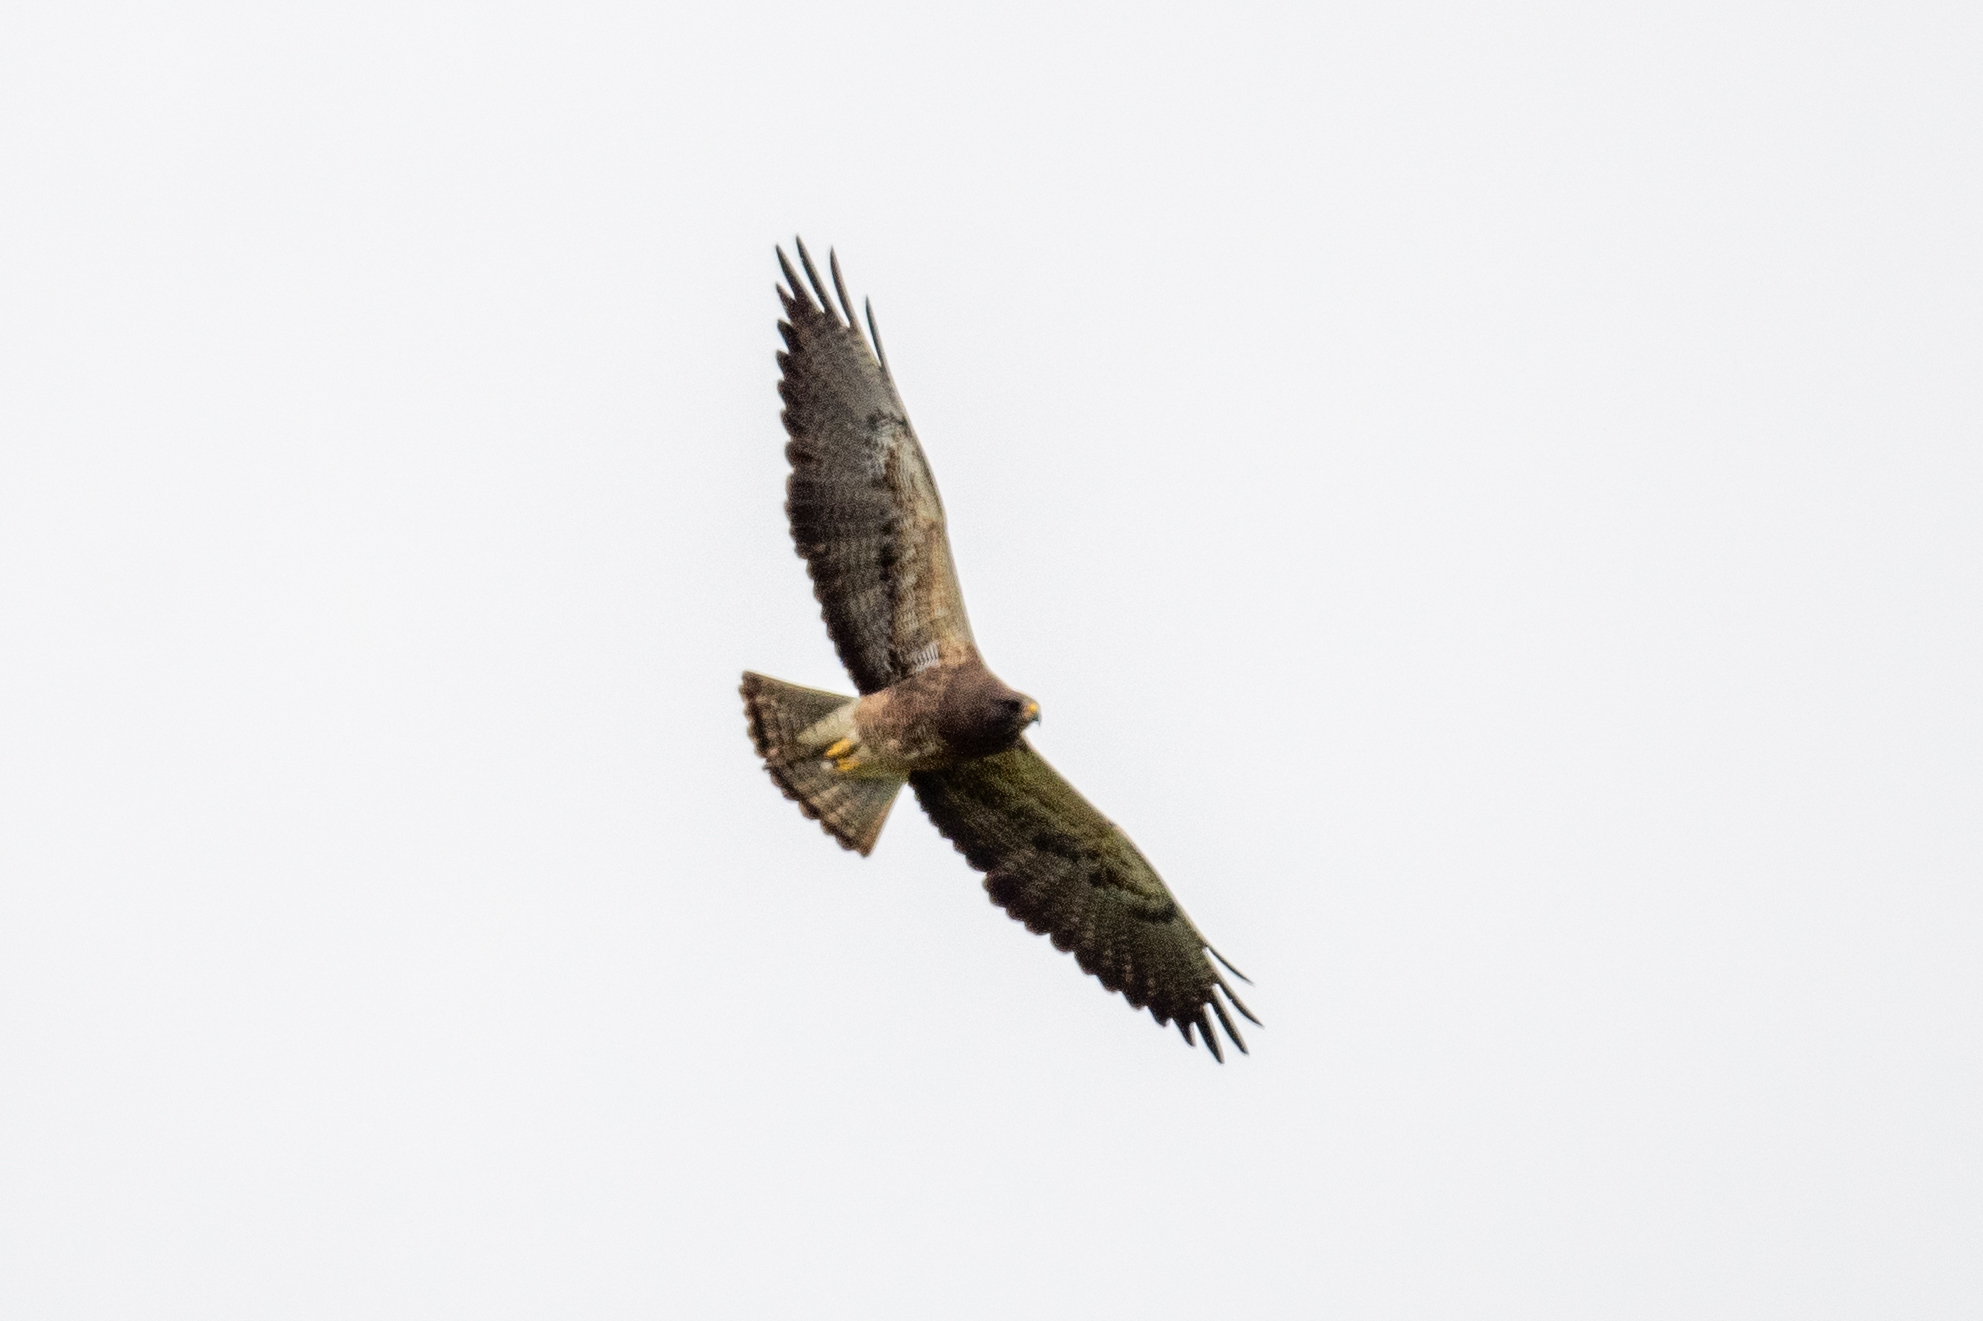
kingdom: Animalia
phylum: Chordata
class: Aves
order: Accipitriformes
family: Accipitridae
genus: Buteo
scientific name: Buteo swainsoni
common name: Swainson's hawk
